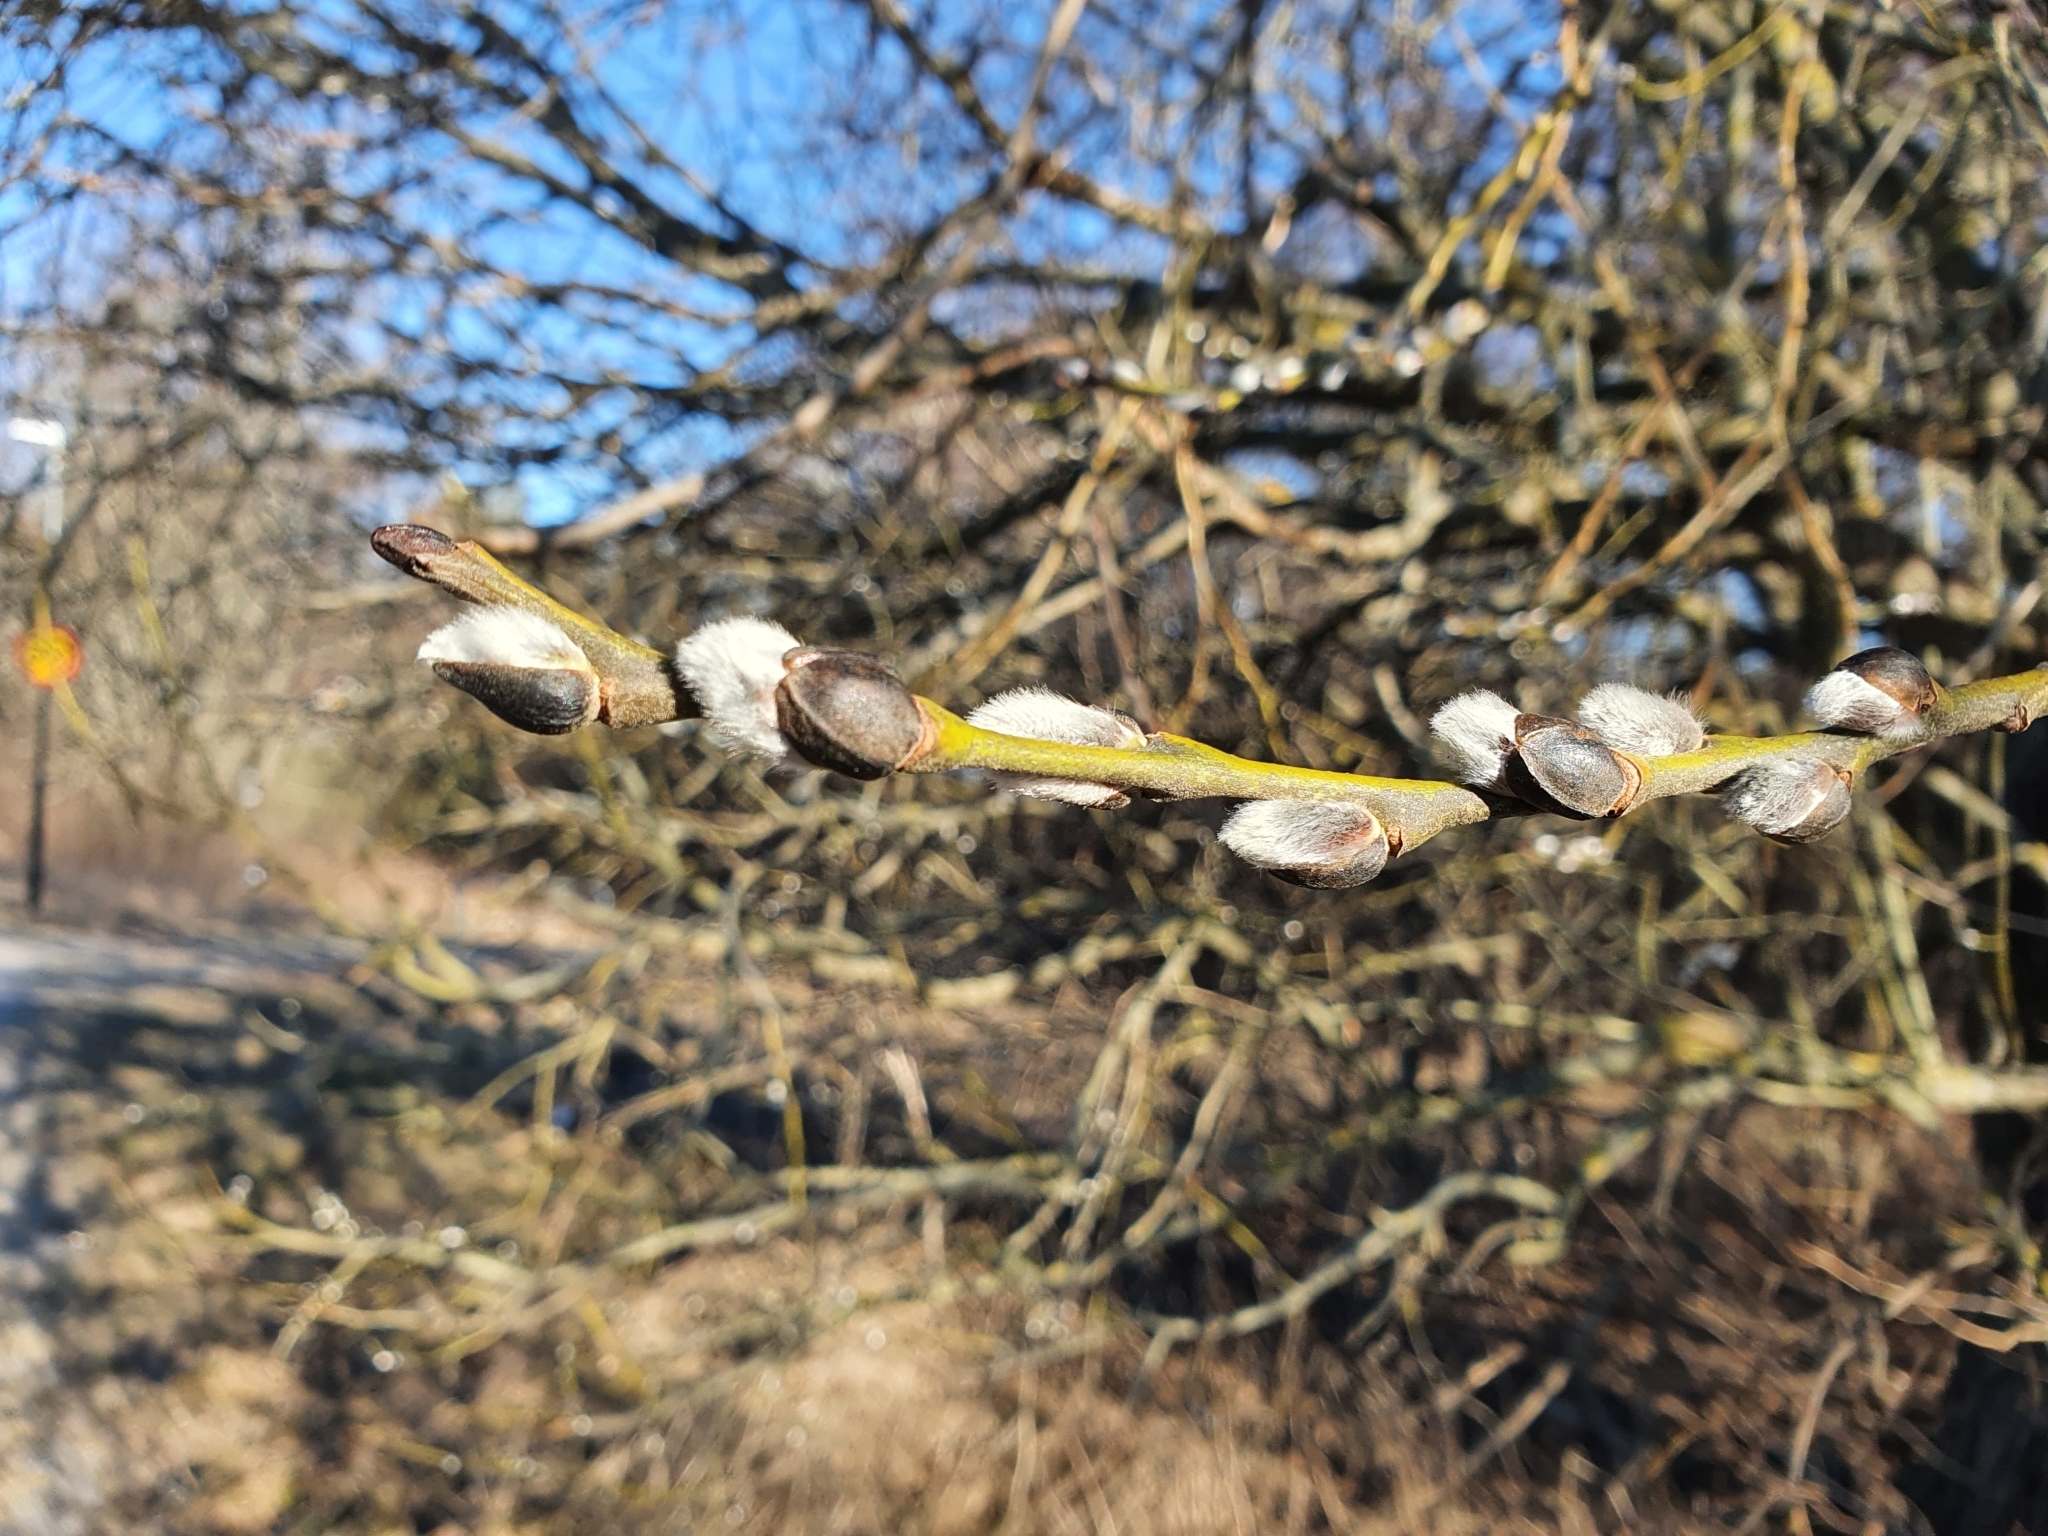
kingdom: Plantae
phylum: Tracheophyta
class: Magnoliopsida
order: Malpighiales
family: Salicaceae
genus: Salix
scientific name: Salix caprea
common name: Goat willow
